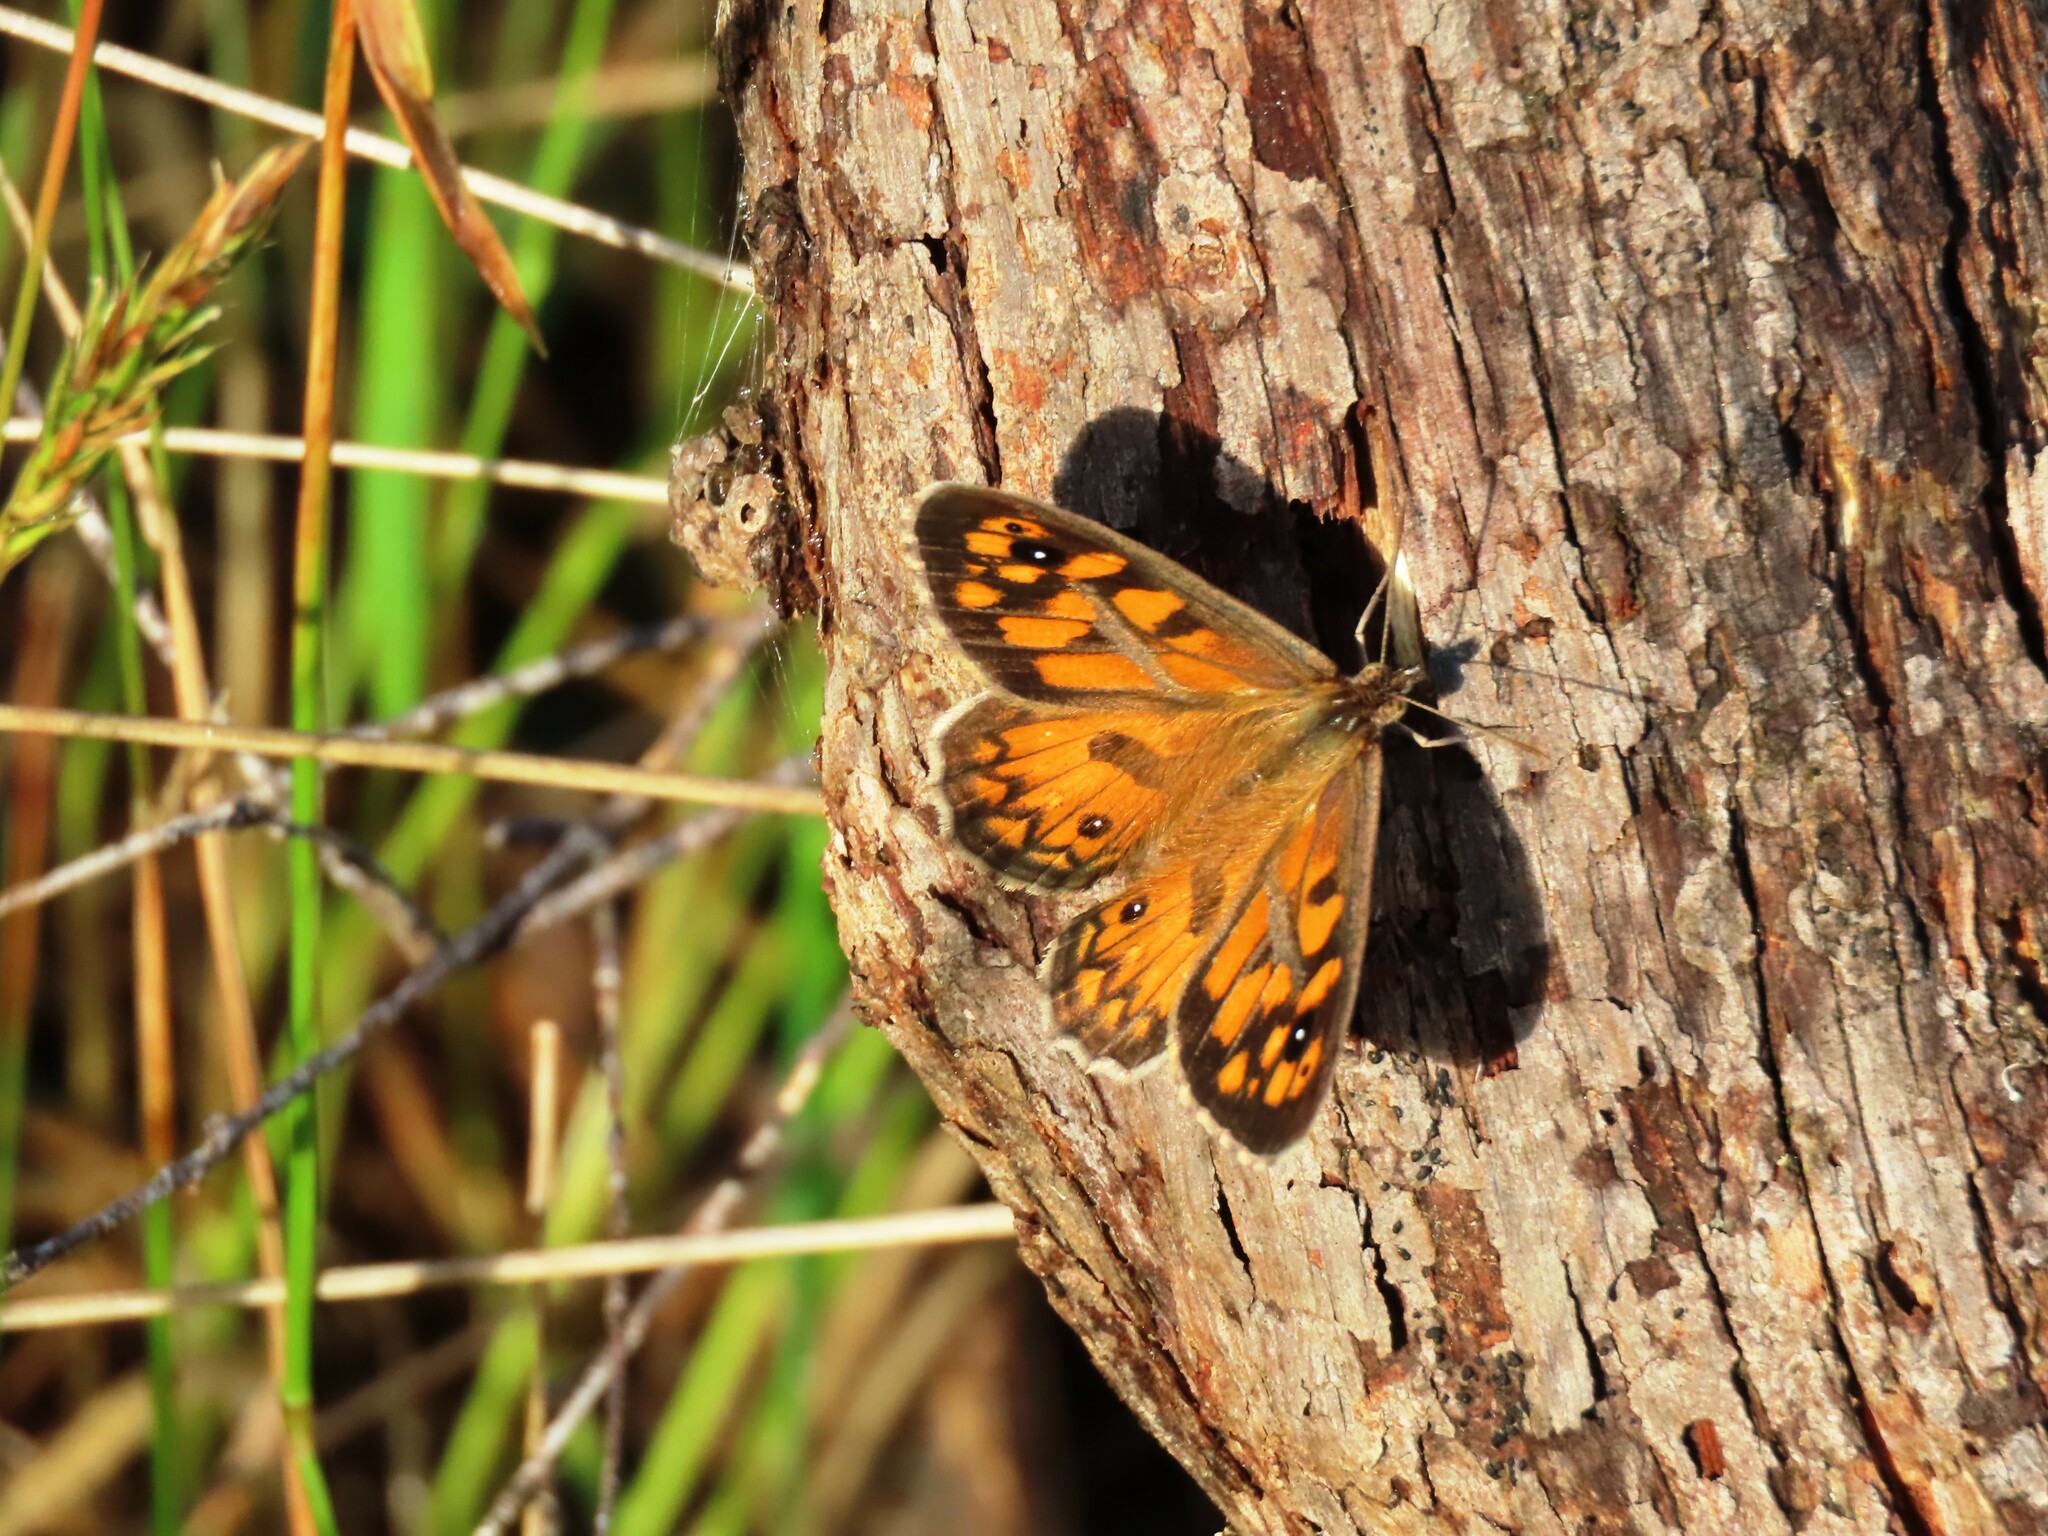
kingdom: Animalia
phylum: Arthropoda
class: Insecta
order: Lepidoptera
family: Nymphalidae
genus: Geitoneura
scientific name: Geitoneura klugii
